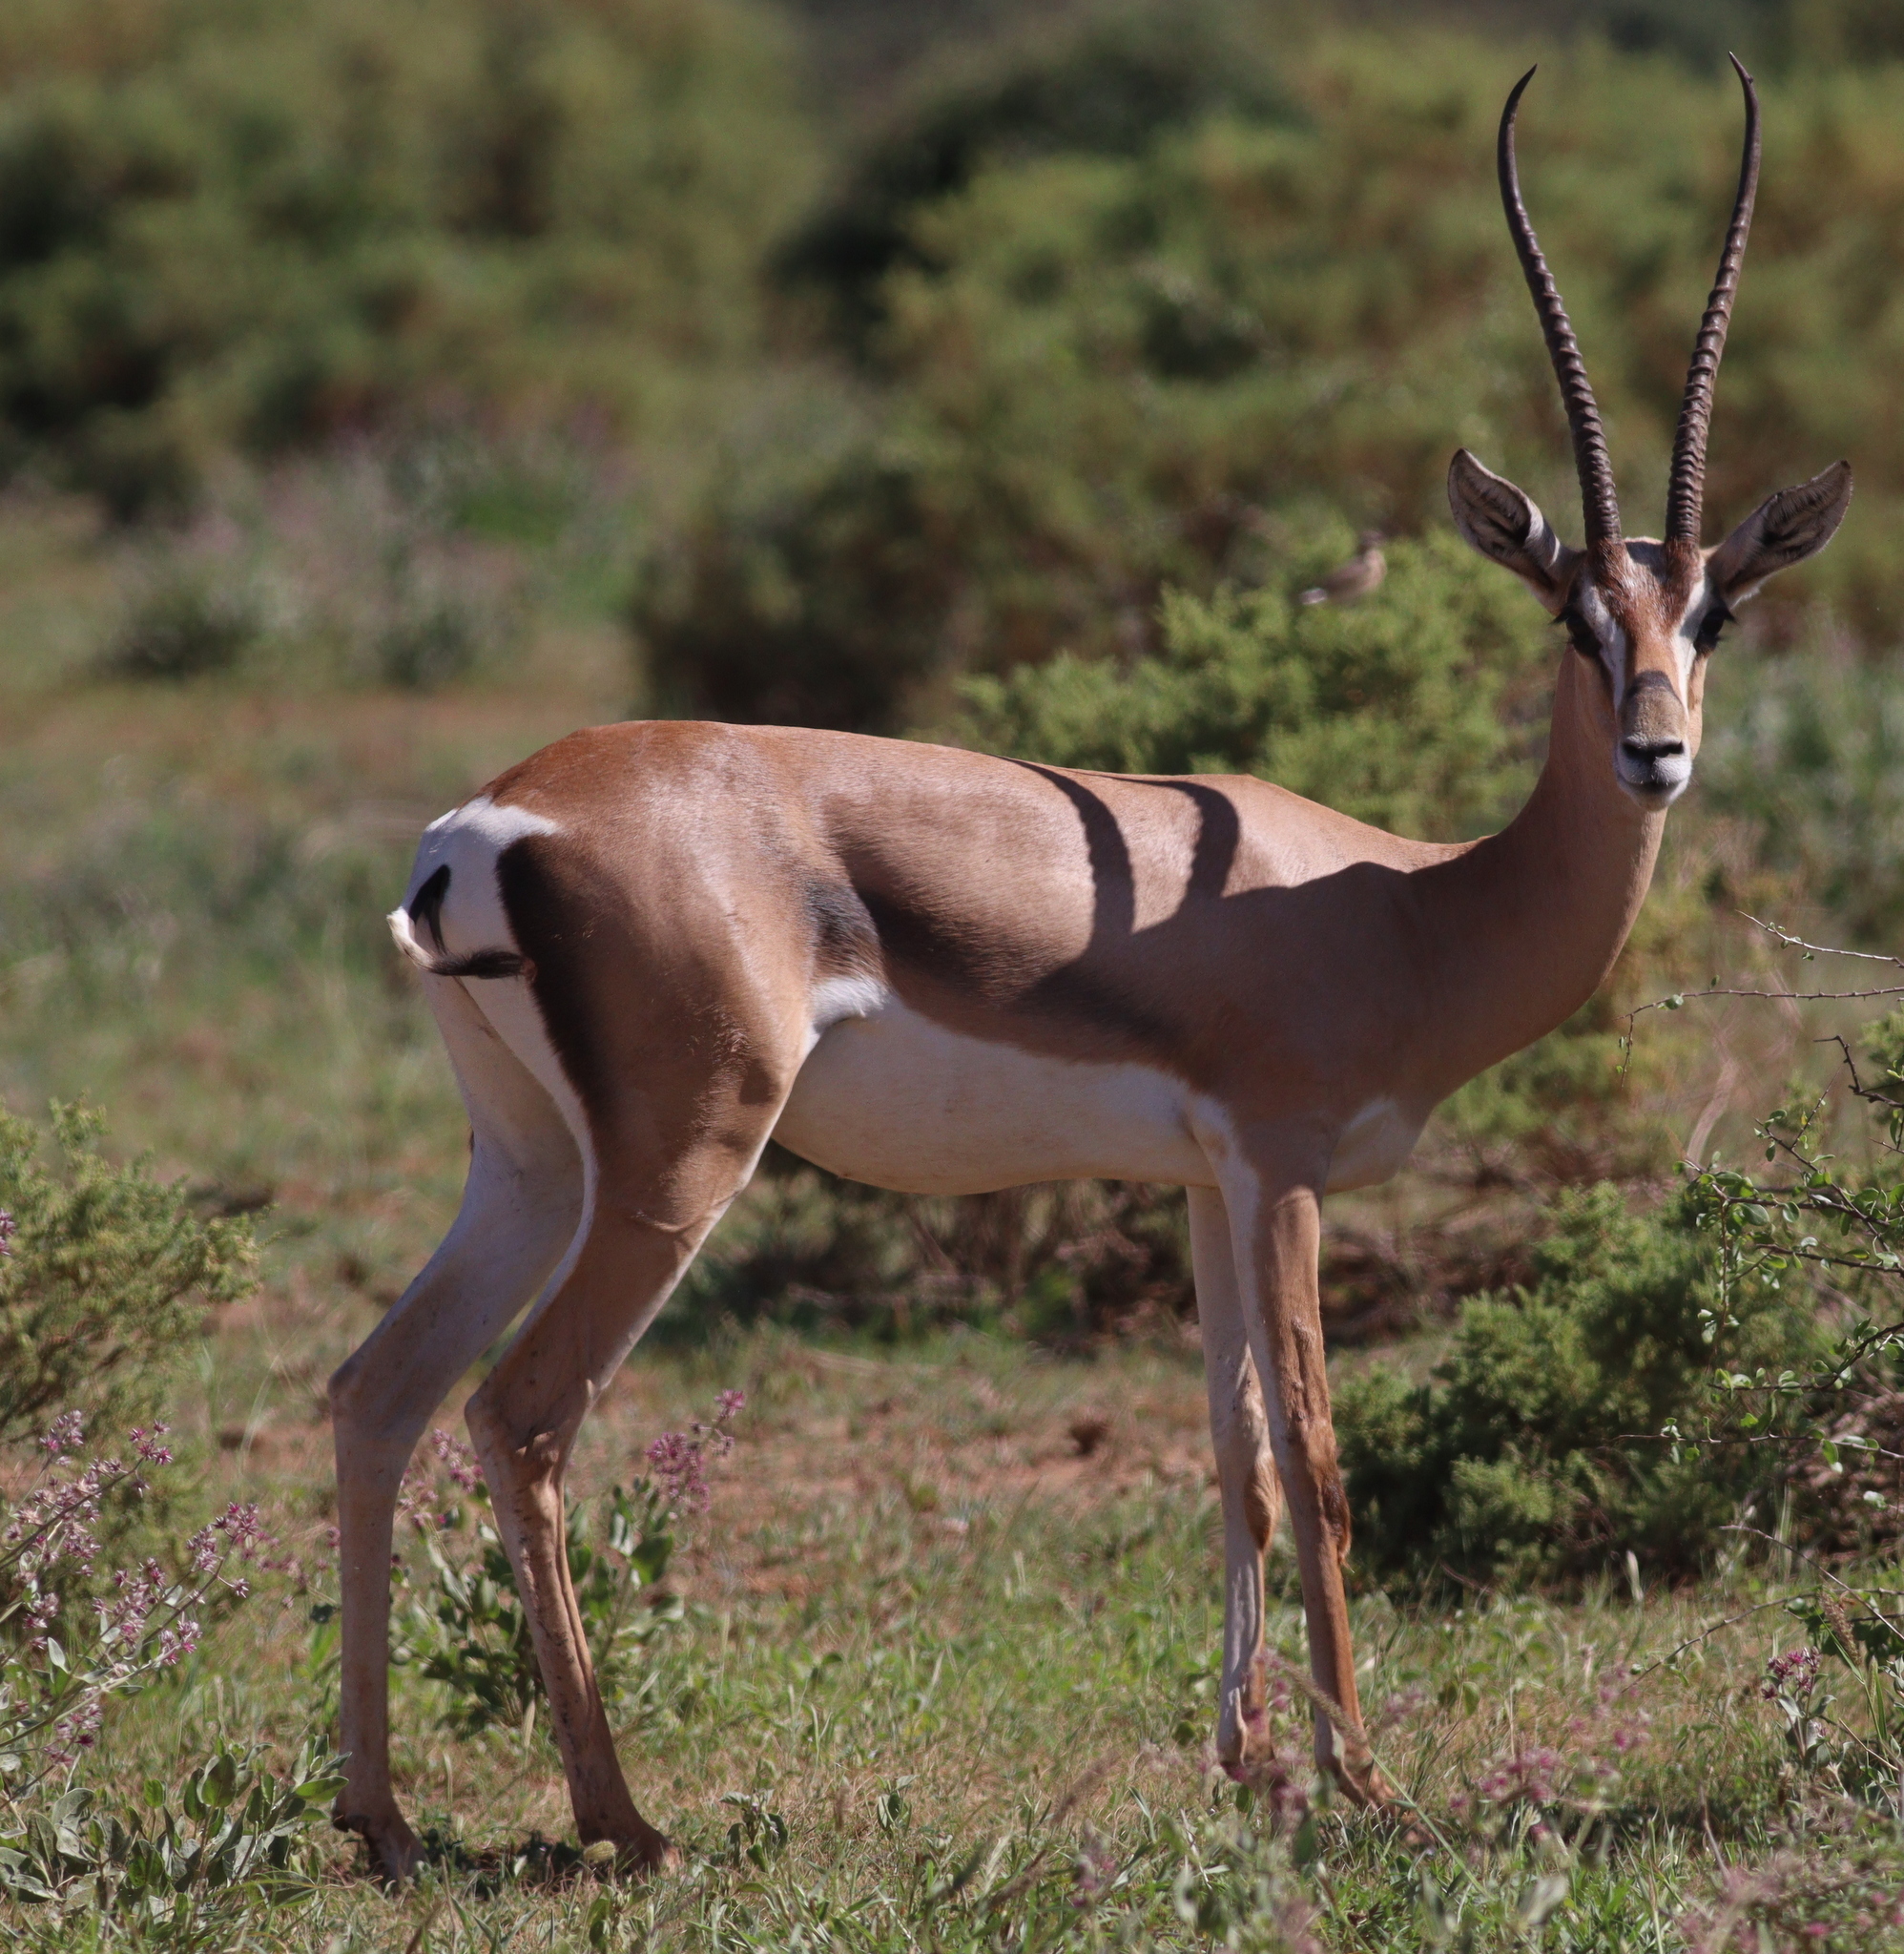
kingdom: Animalia
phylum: Chordata
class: Mammalia
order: Artiodactyla
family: Bovidae
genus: Nanger
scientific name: Nanger granti
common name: Grant's gazelle
